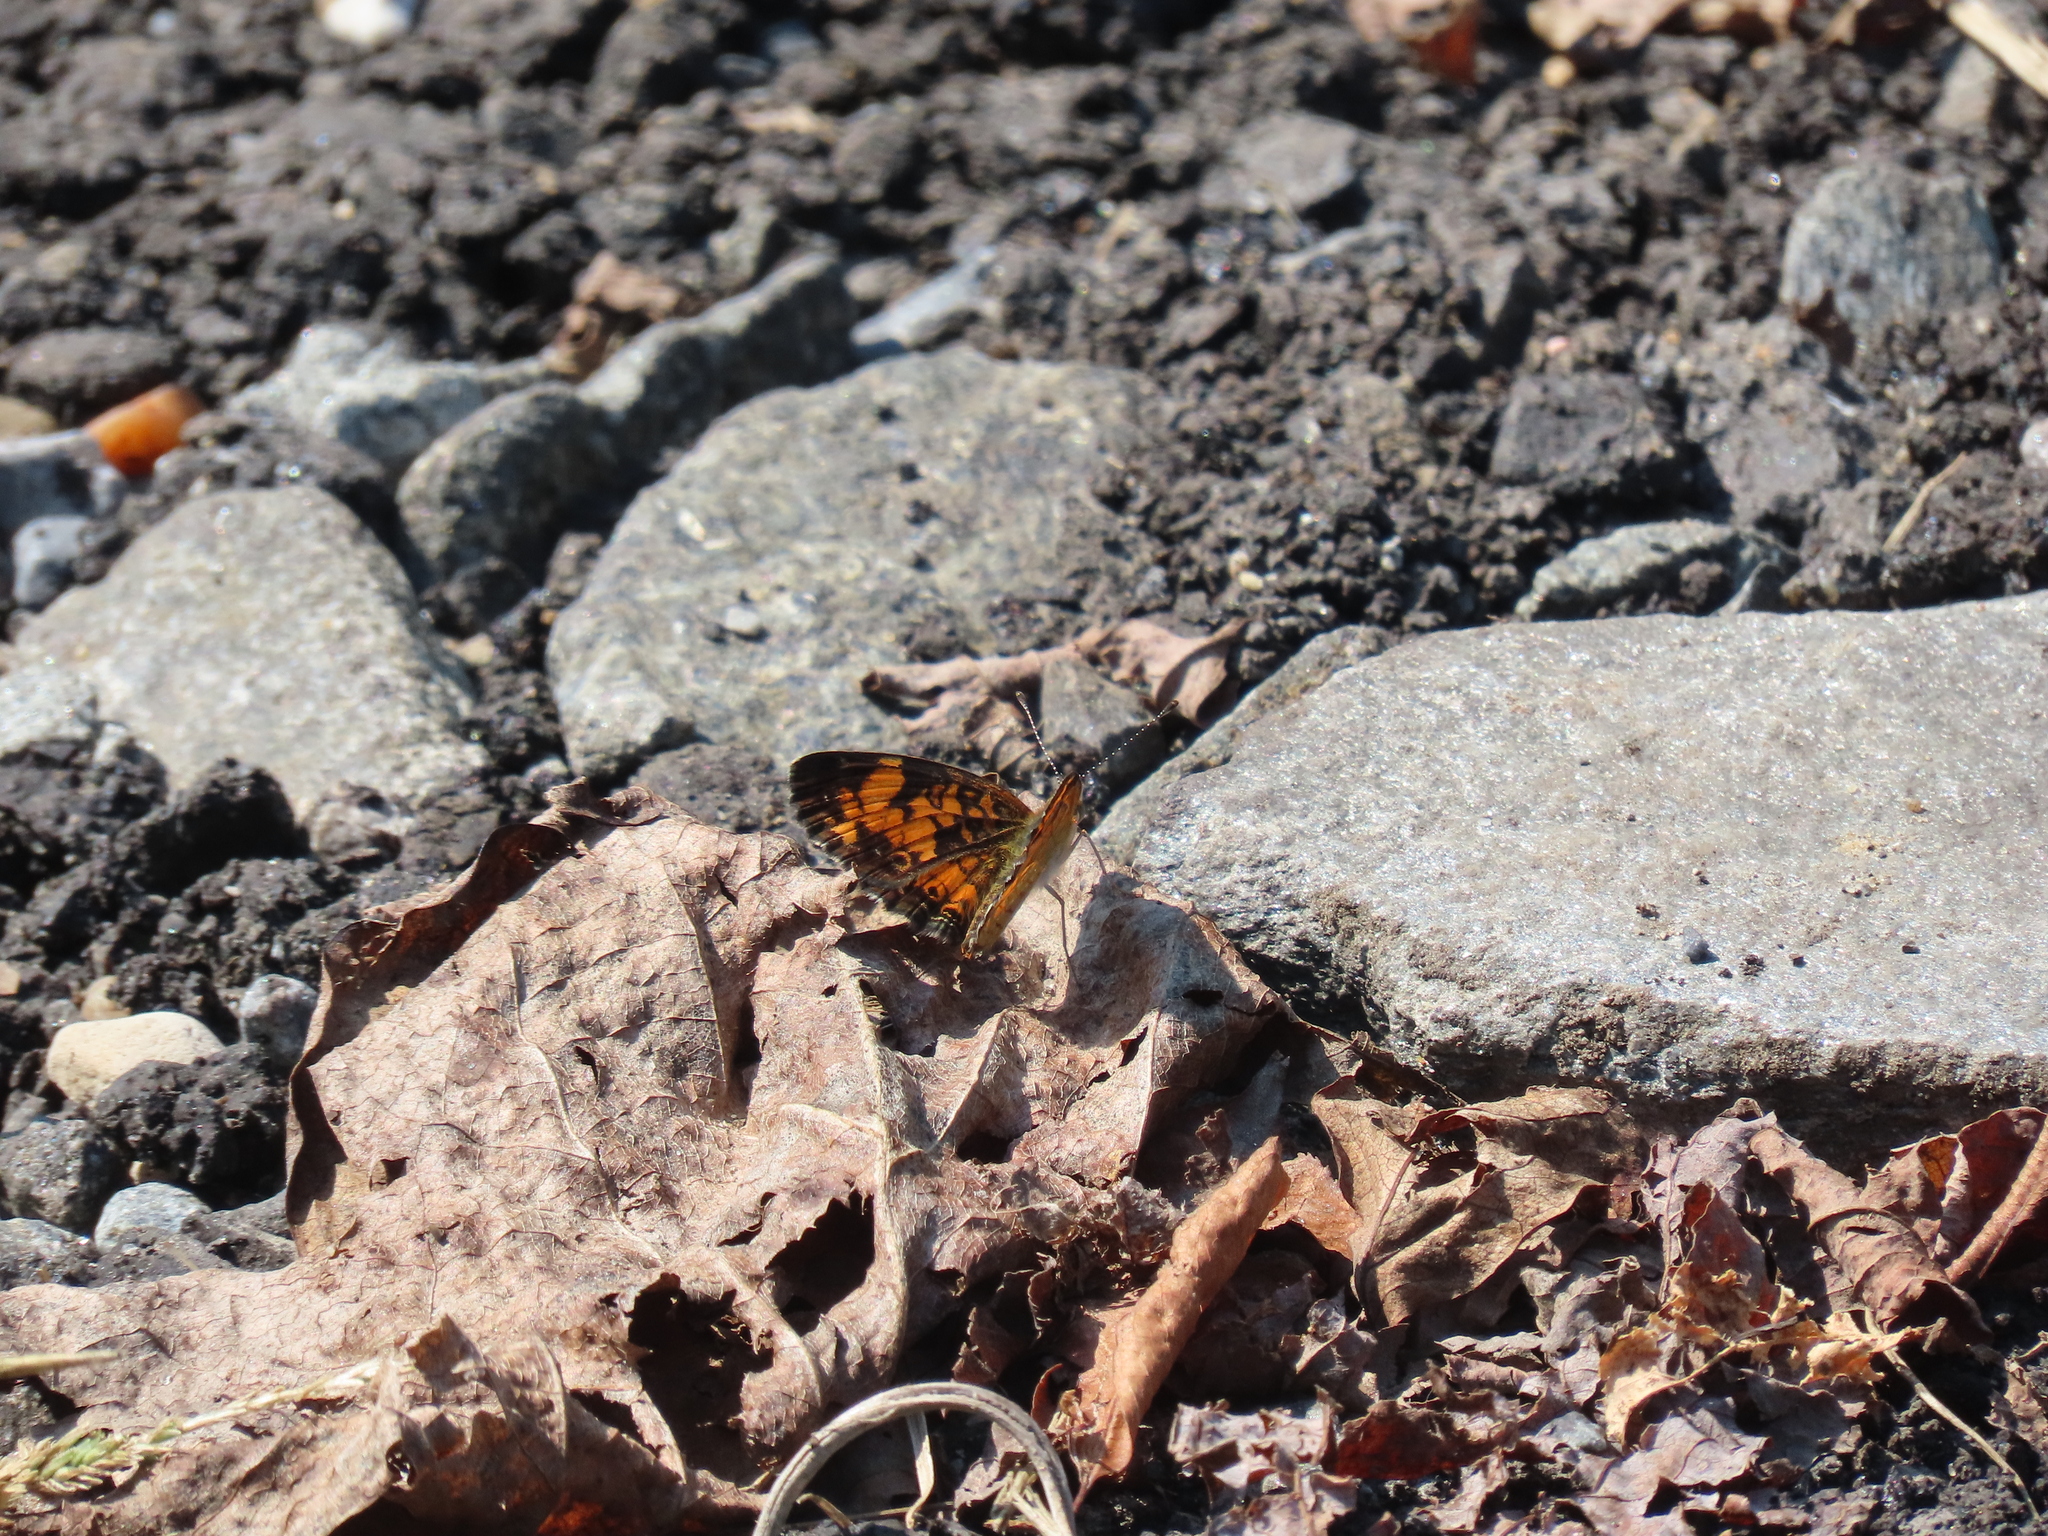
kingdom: Animalia
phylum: Arthropoda
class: Insecta
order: Lepidoptera
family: Nymphalidae
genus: Phyciodes
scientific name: Phyciodes tharos
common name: Pearl crescent
